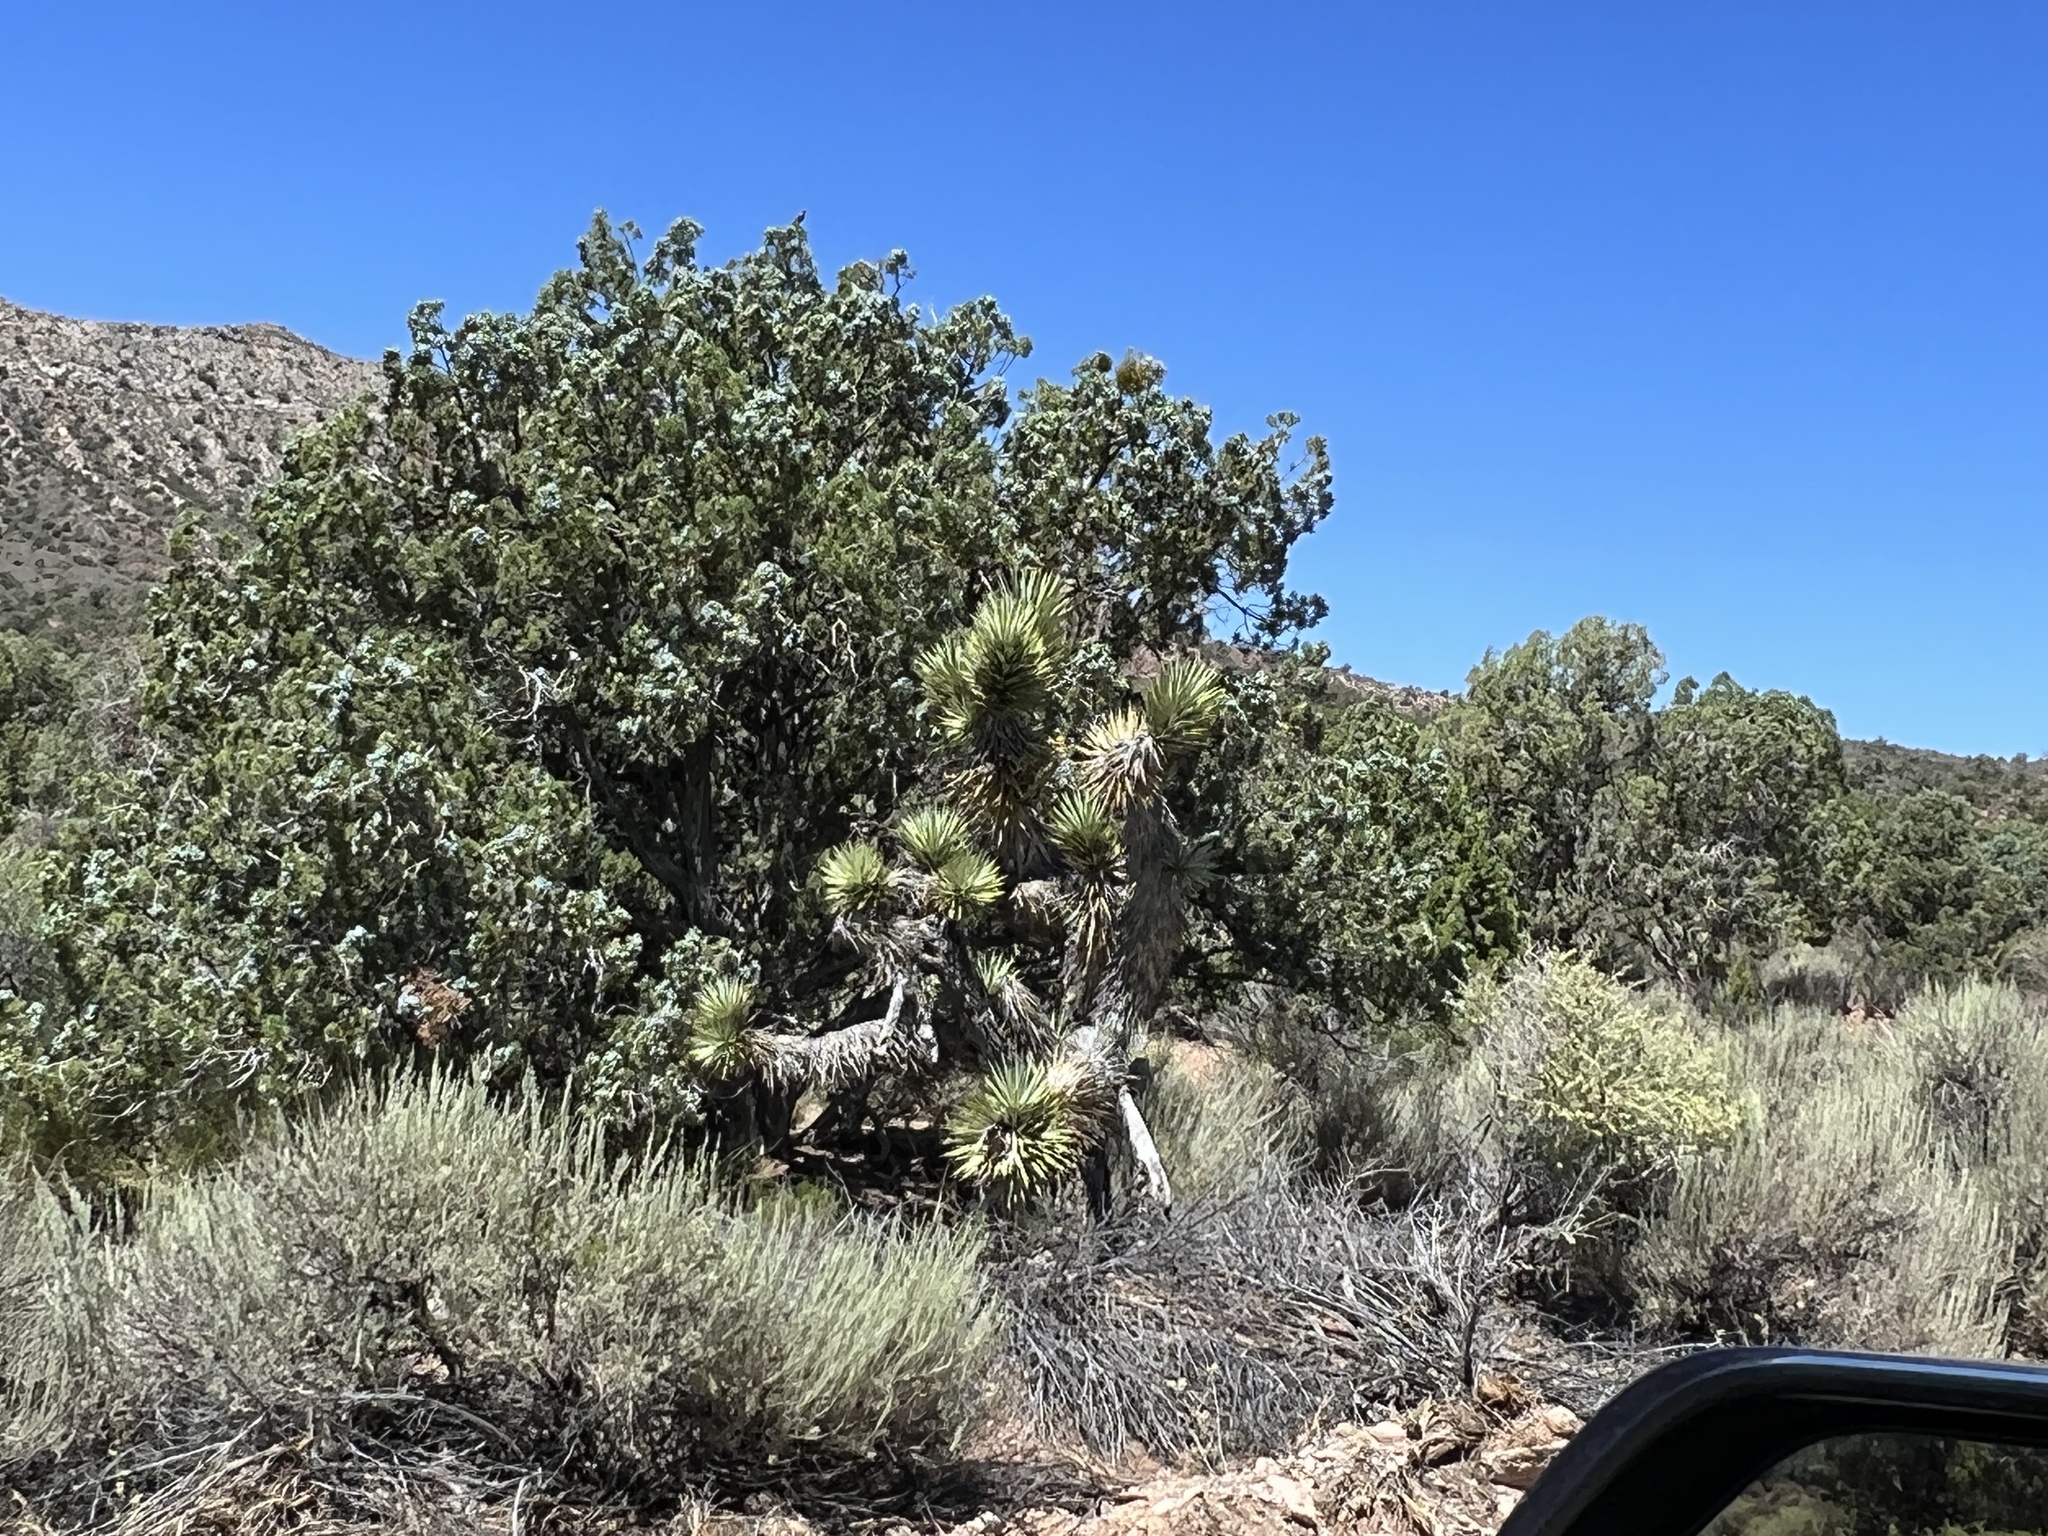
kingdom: Plantae
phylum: Tracheophyta
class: Liliopsida
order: Asparagales
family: Asparagaceae
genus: Yucca
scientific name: Yucca brevifolia
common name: Joshua tree
